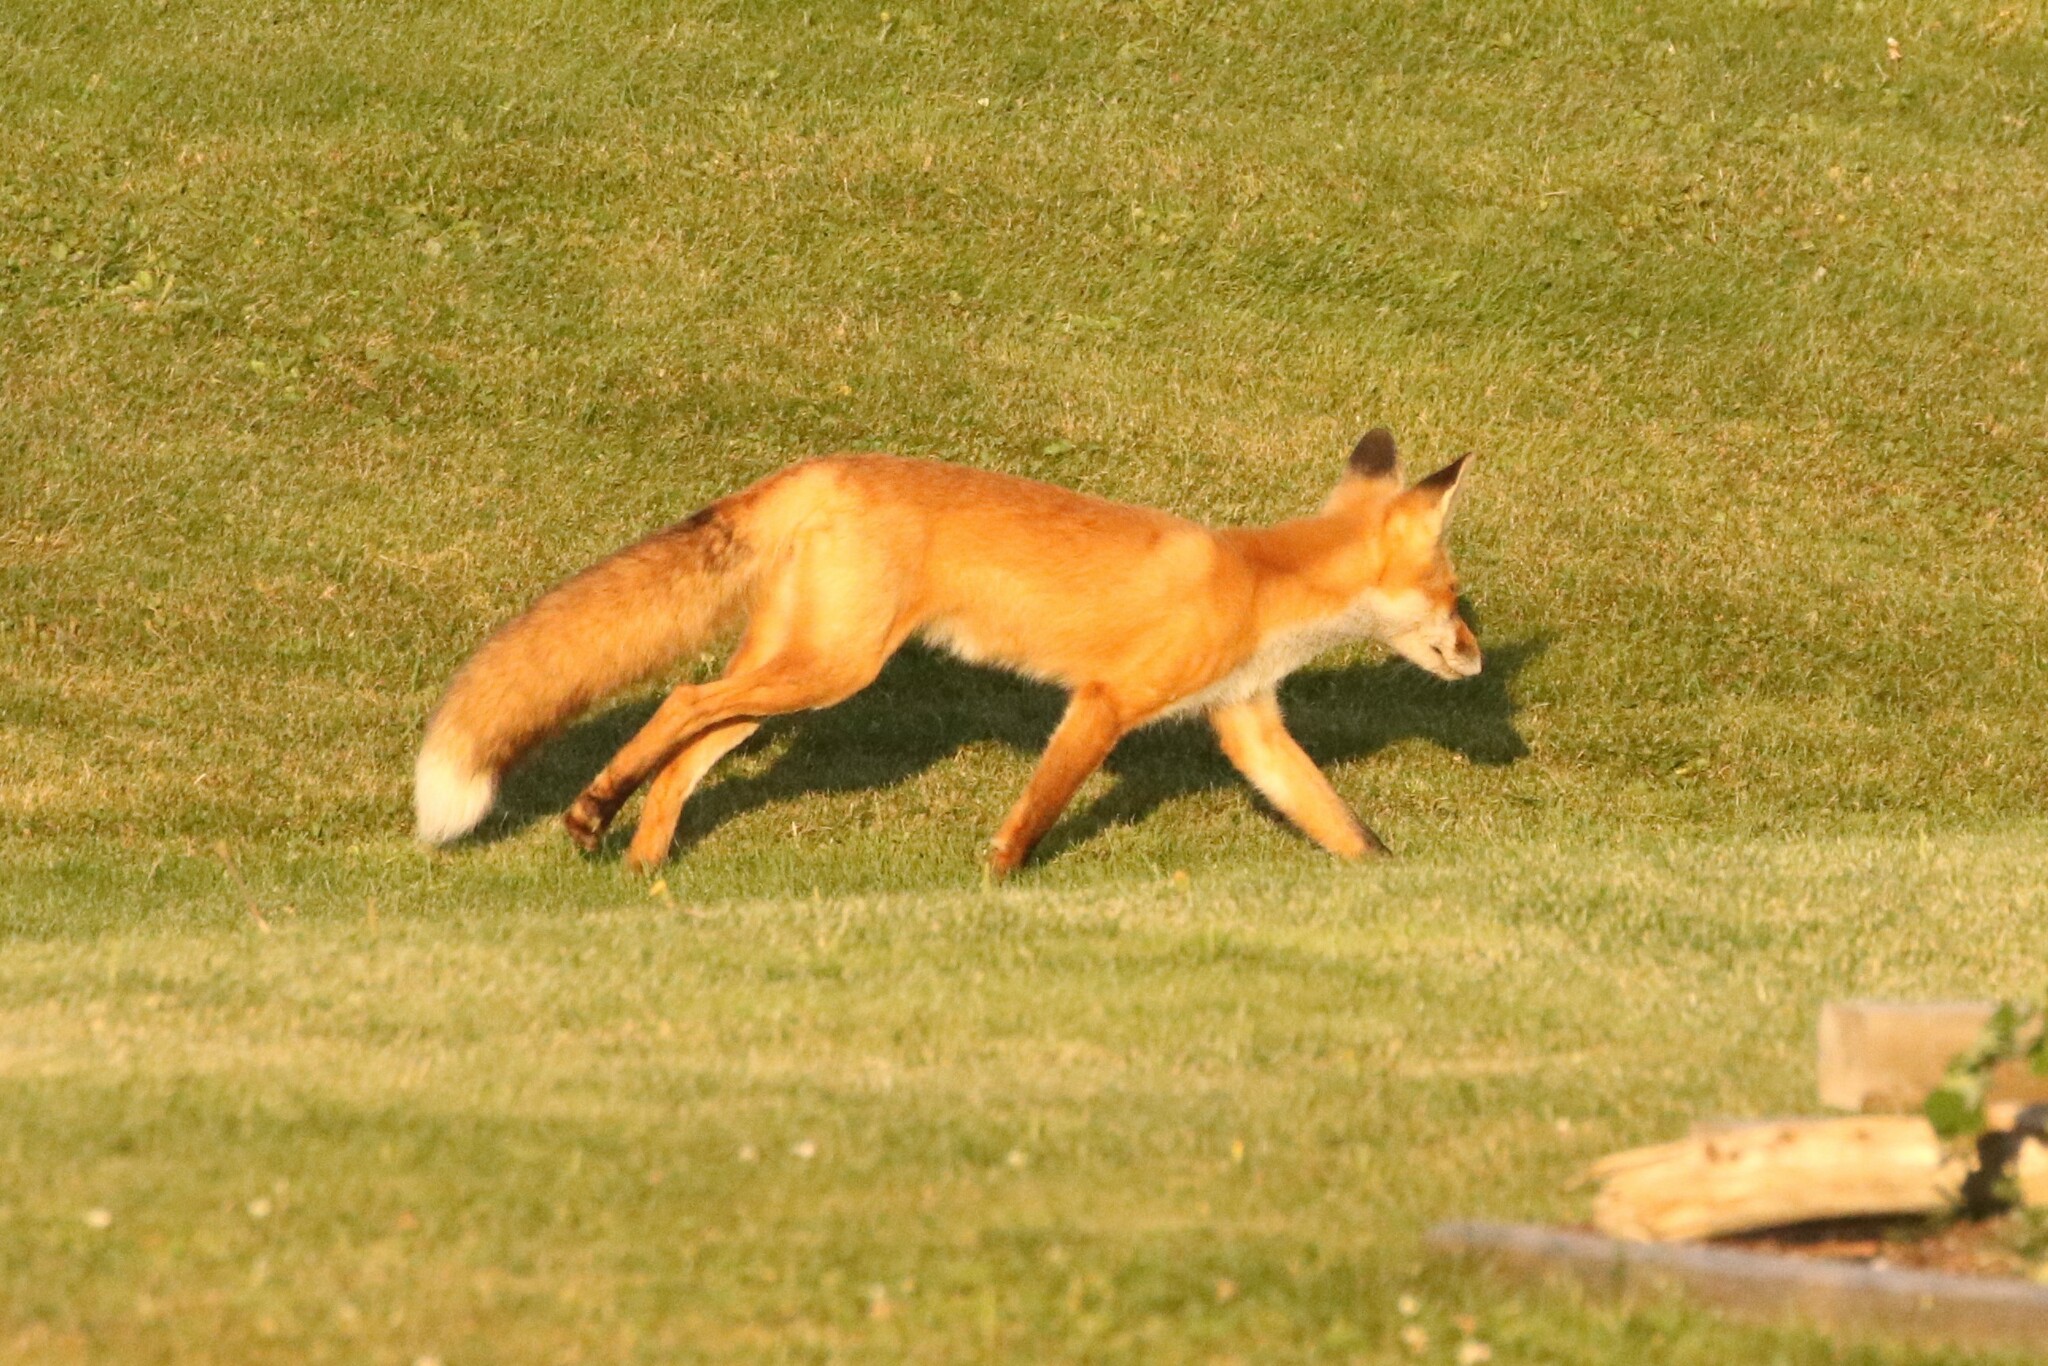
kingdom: Animalia
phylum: Chordata
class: Mammalia
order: Carnivora
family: Canidae
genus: Vulpes
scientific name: Vulpes vulpes
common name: Red fox
